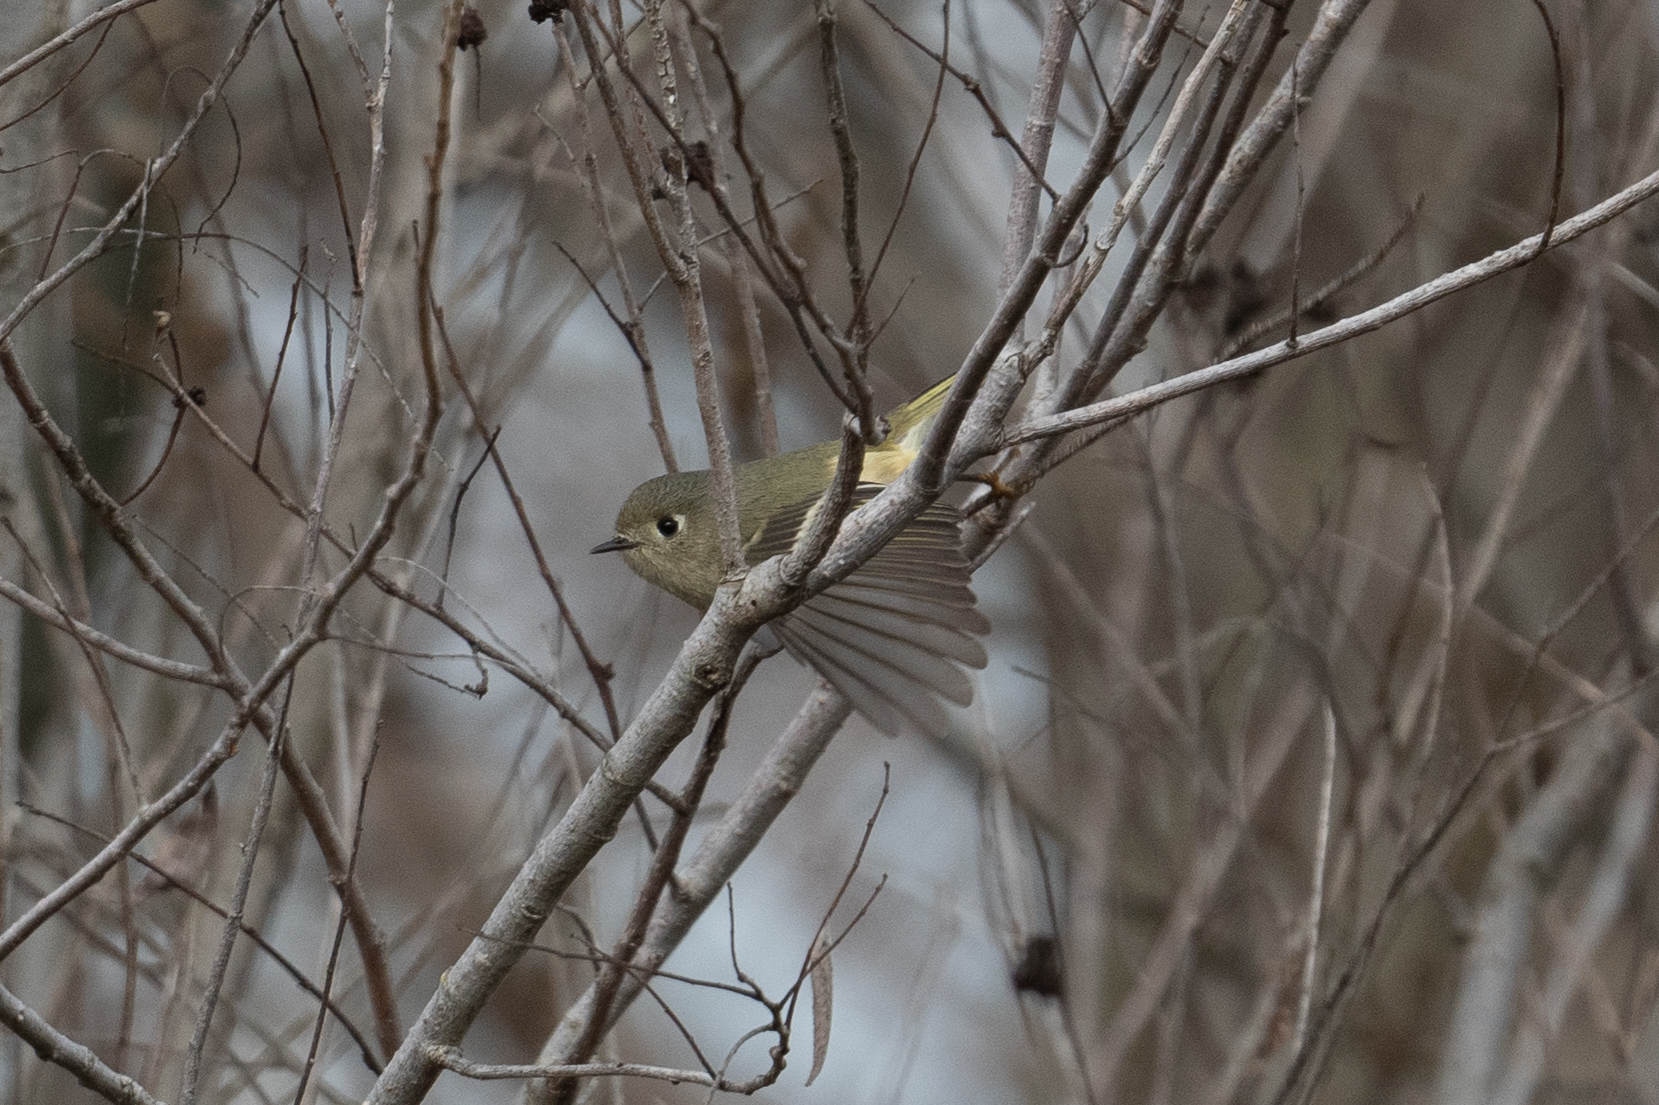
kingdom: Animalia
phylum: Chordata
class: Aves
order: Passeriformes
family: Regulidae
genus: Regulus
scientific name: Regulus calendula
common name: Ruby-crowned kinglet
